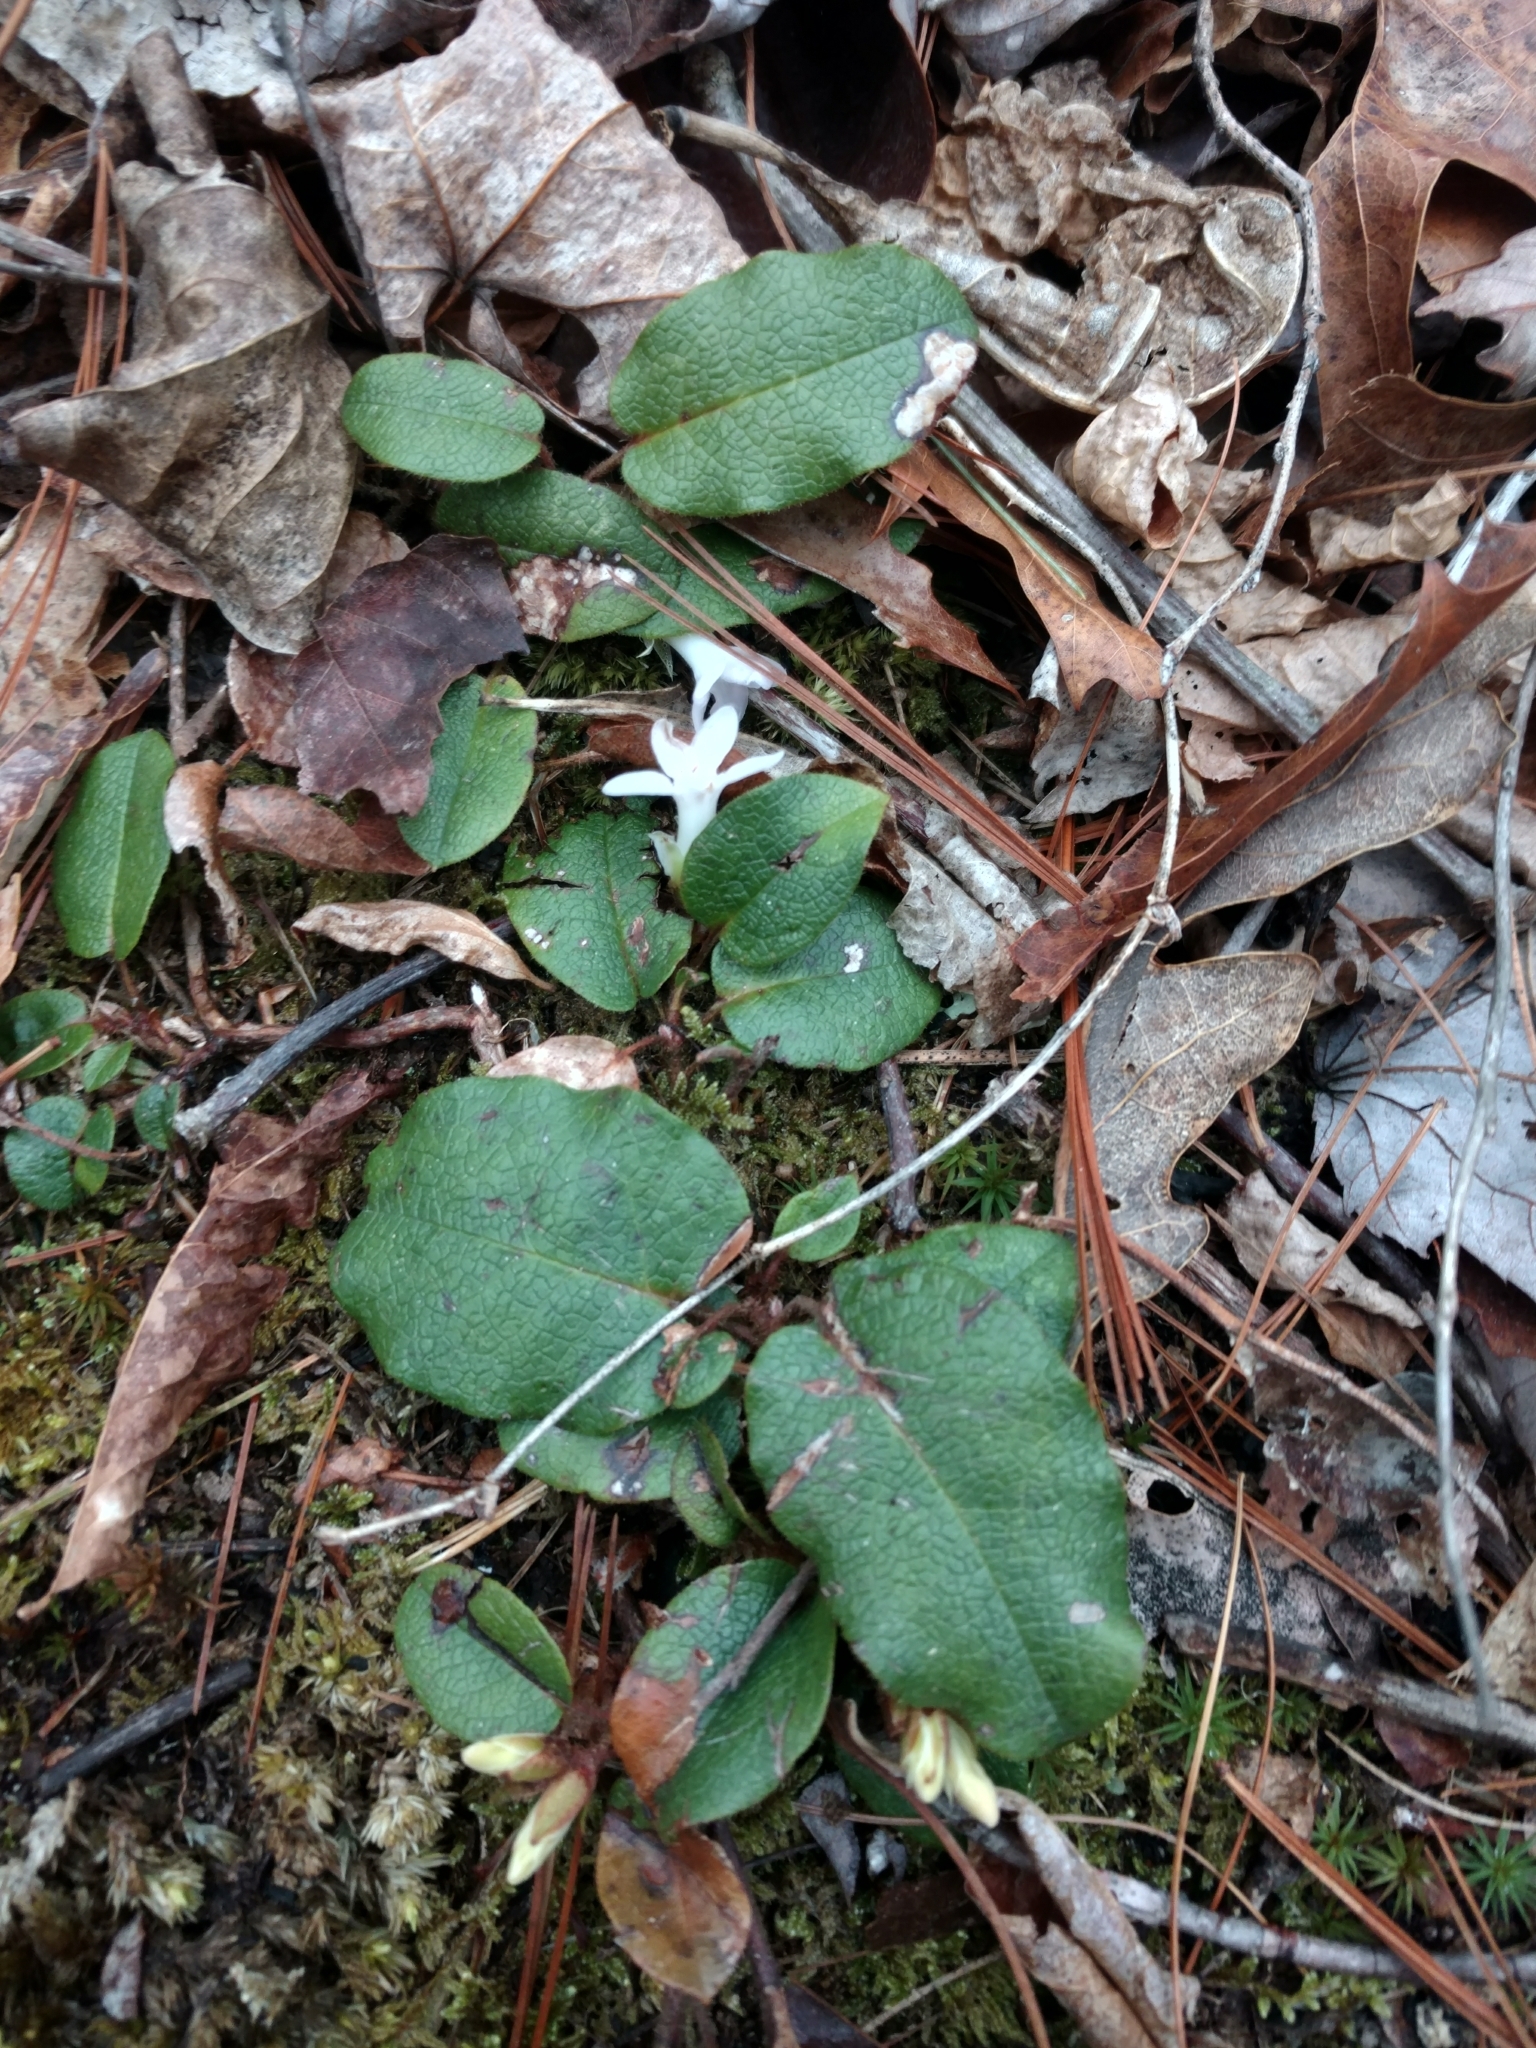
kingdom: Plantae
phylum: Tracheophyta
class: Magnoliopsida
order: Ericales
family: Ericaceae
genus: Epigaea
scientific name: Epigaea repens
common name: Gravelroot
